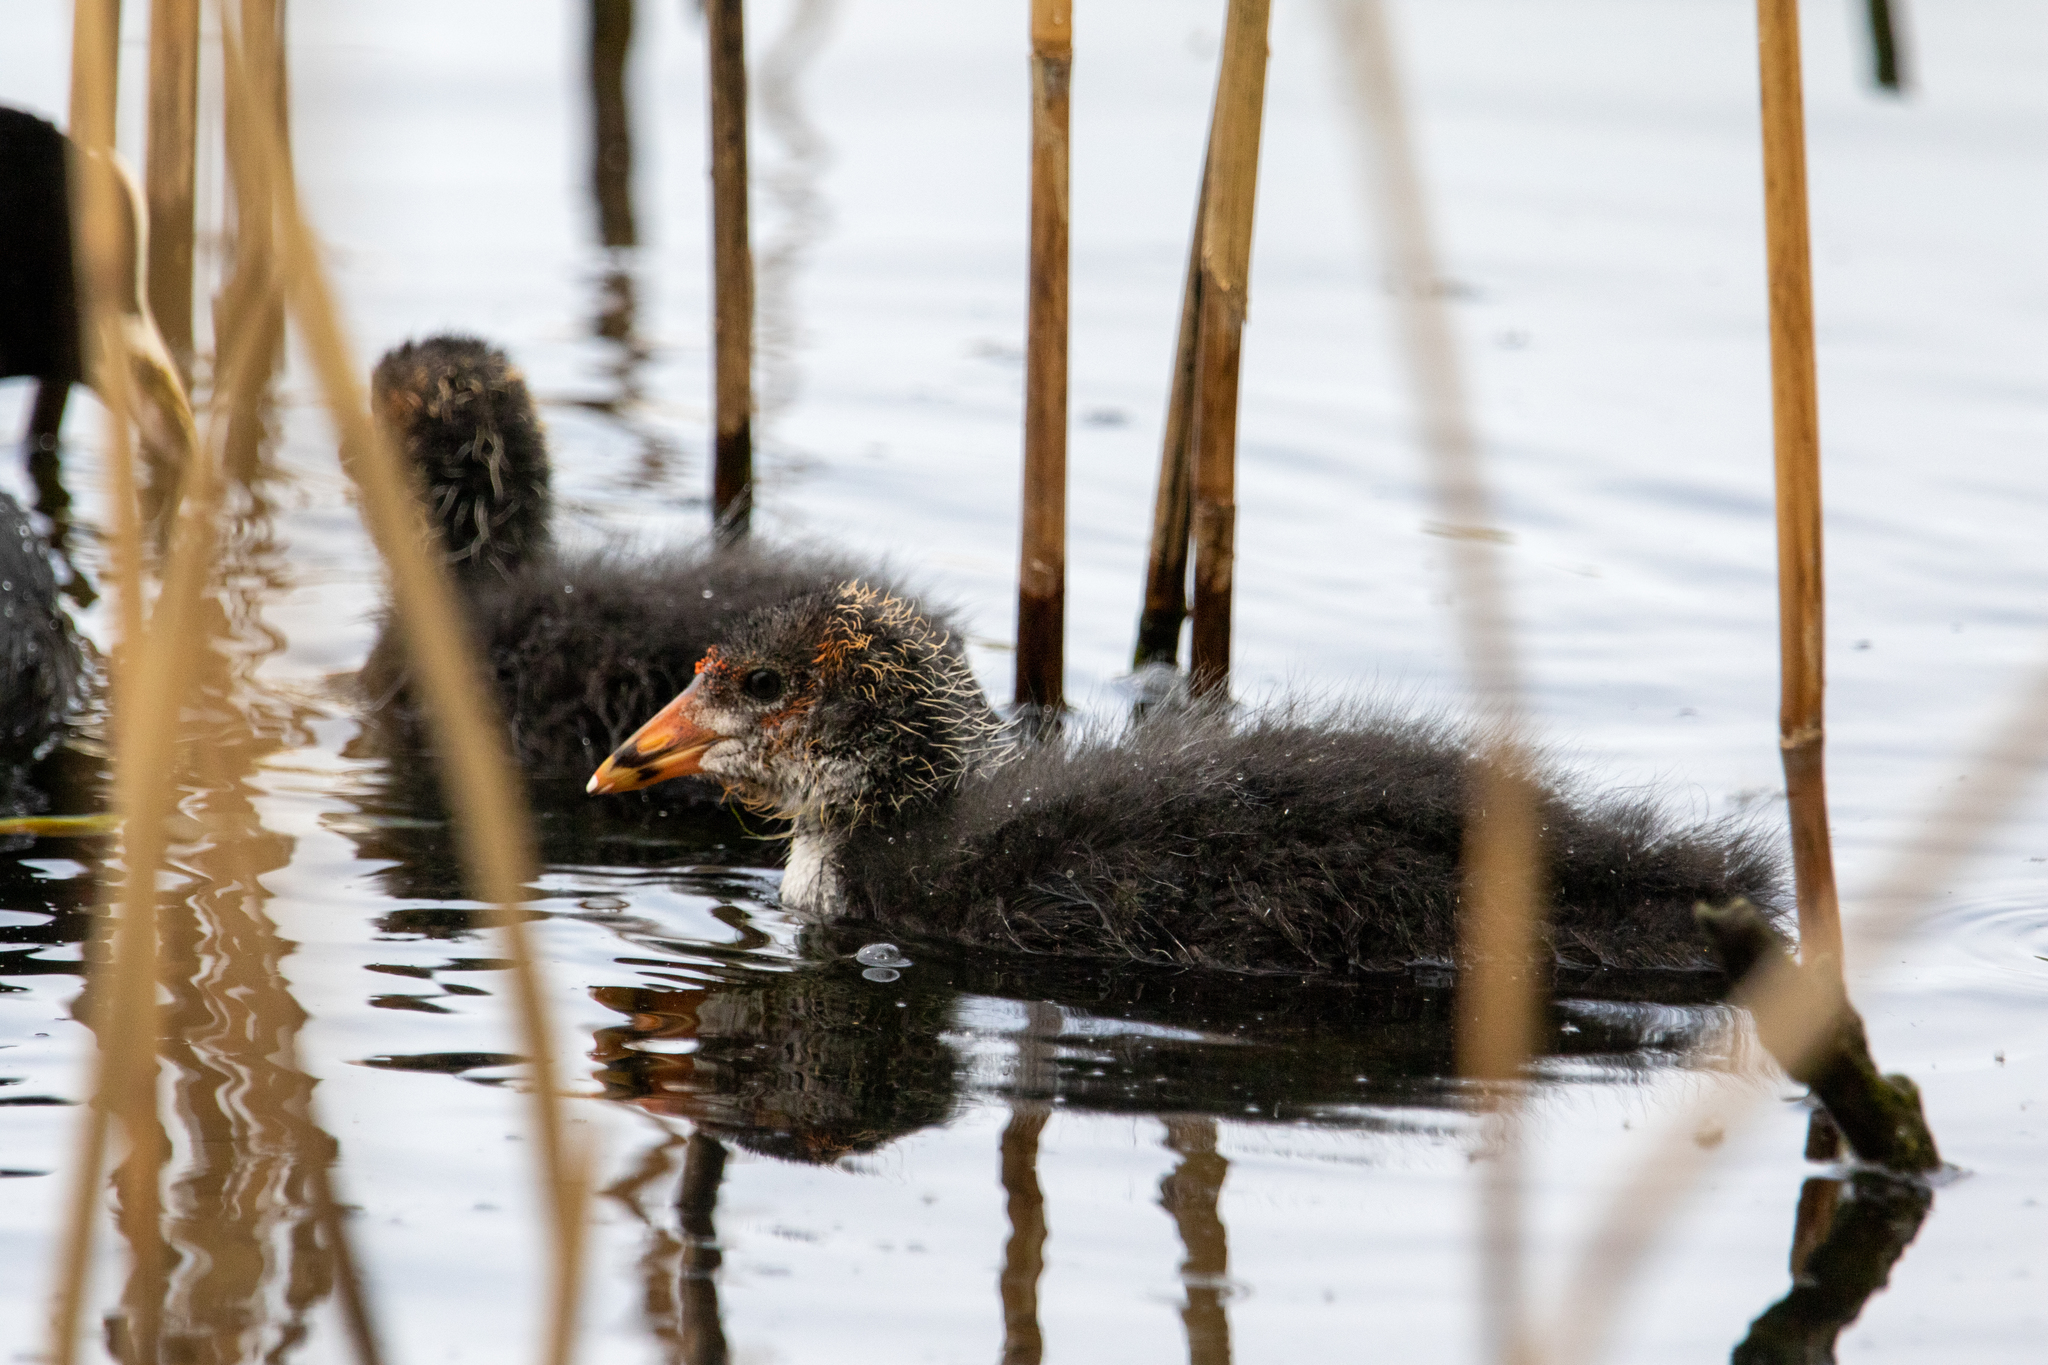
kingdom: Animalia
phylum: Chordata
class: Aves
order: Gruiformes
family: Rallidae
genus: Fulica
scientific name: Fulica atra
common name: Eurasian coot
